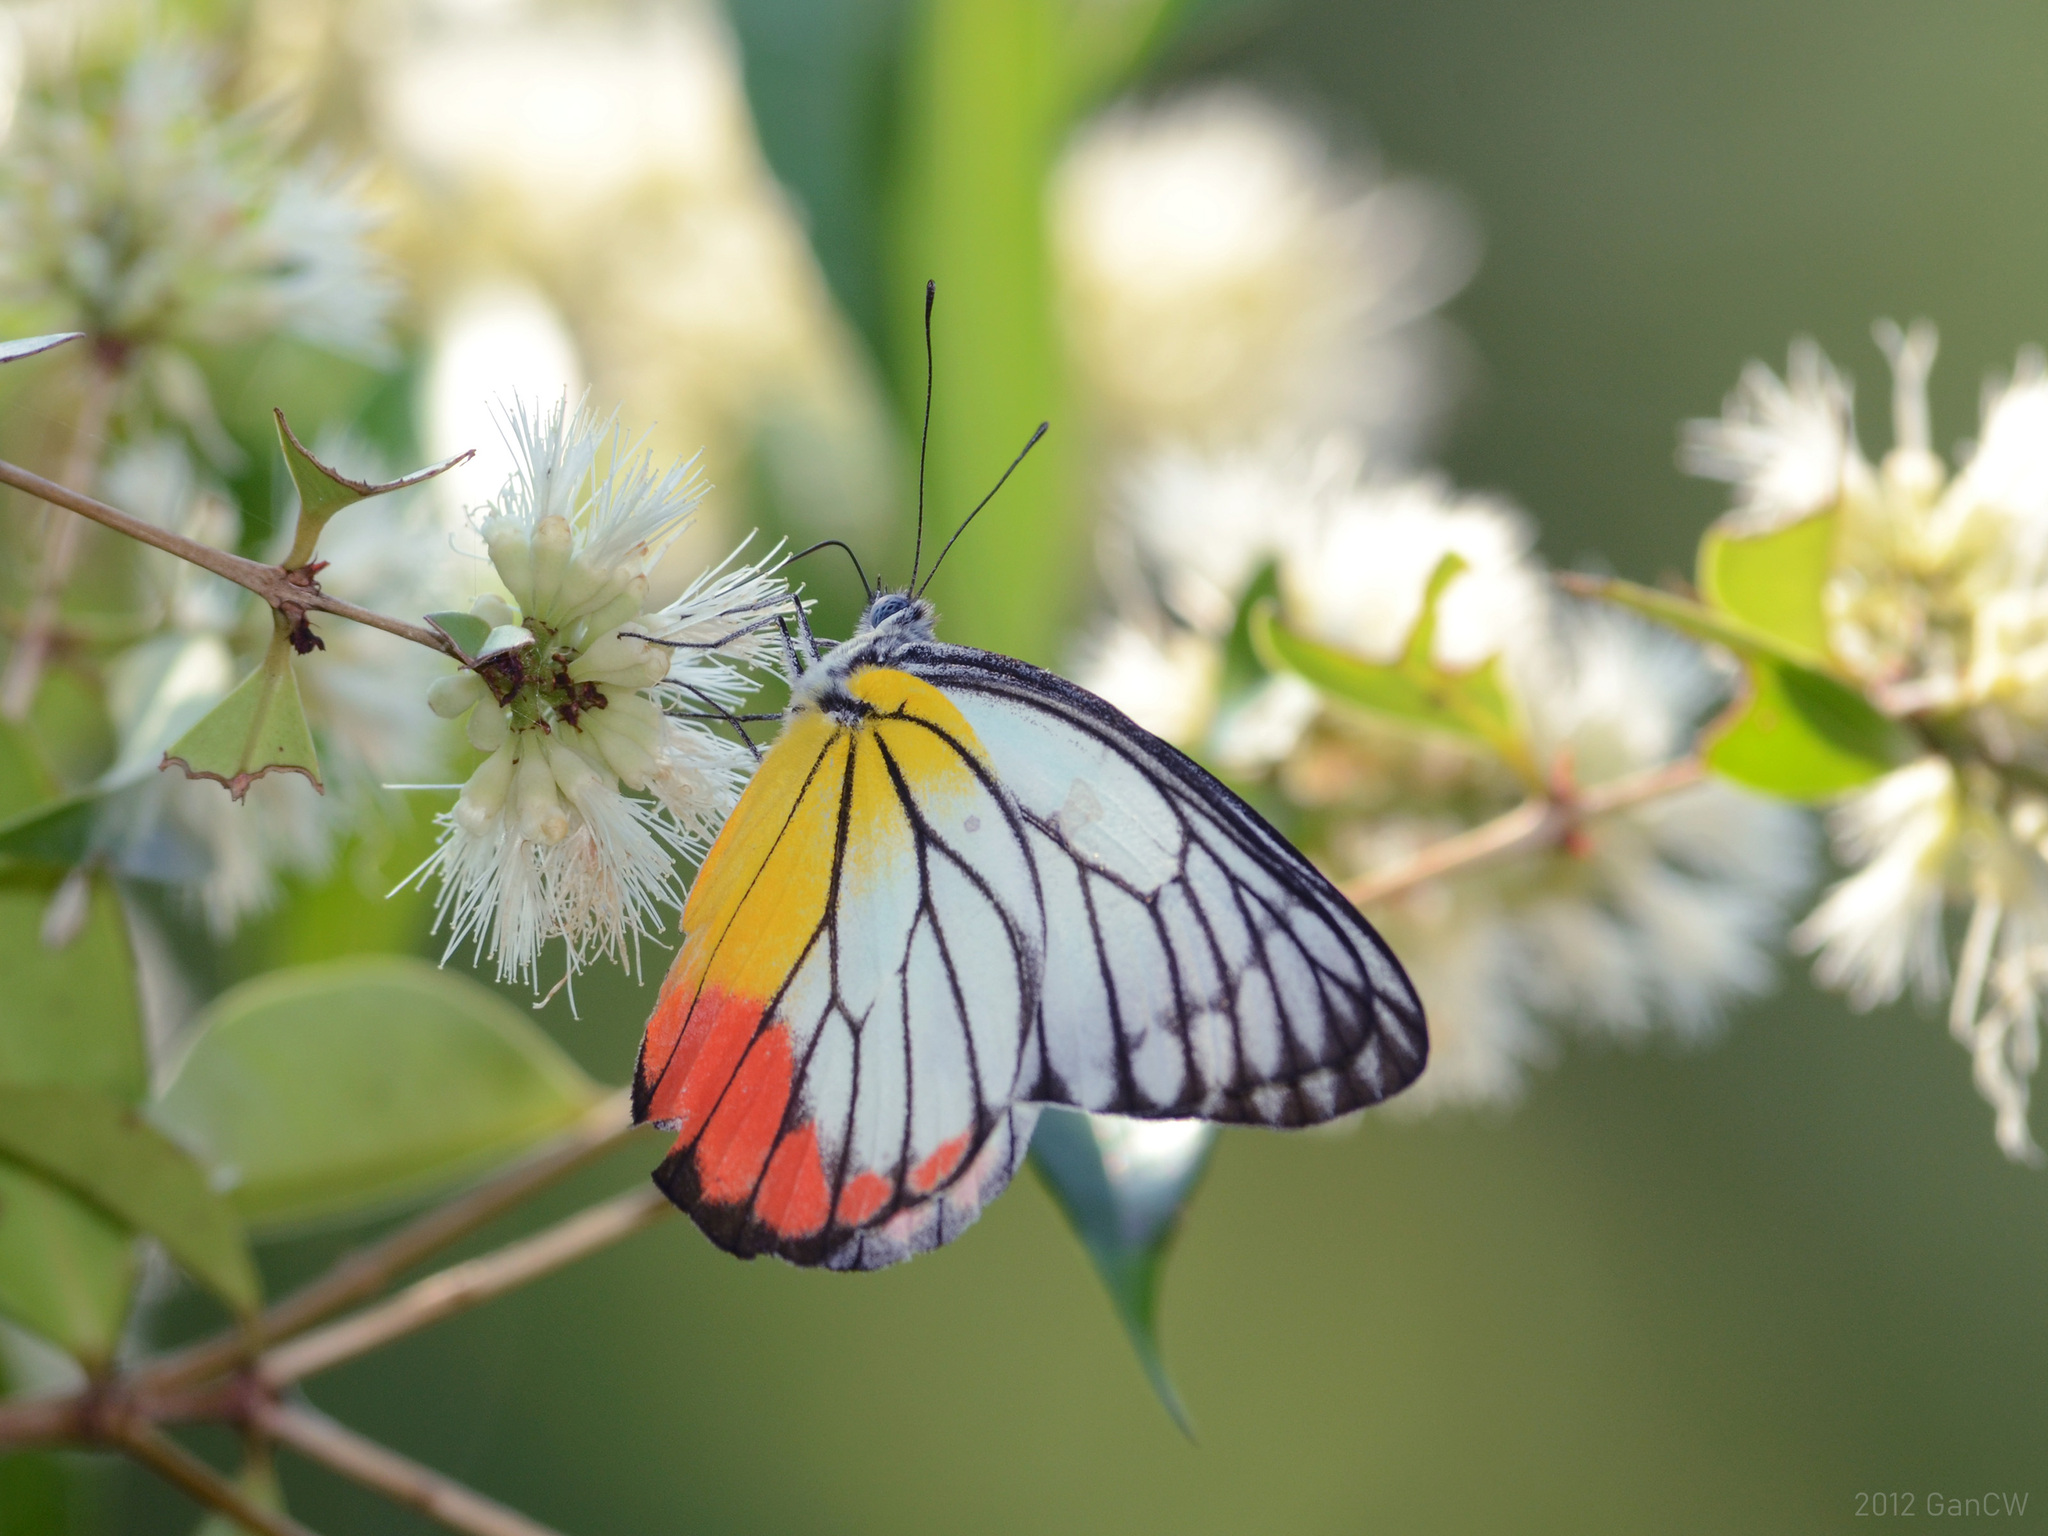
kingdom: Animalia
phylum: Arthropoda
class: Insecta
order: Lepidoptera
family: Pieridae
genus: Delias
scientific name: Delias hyparete
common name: Painted jezebel
